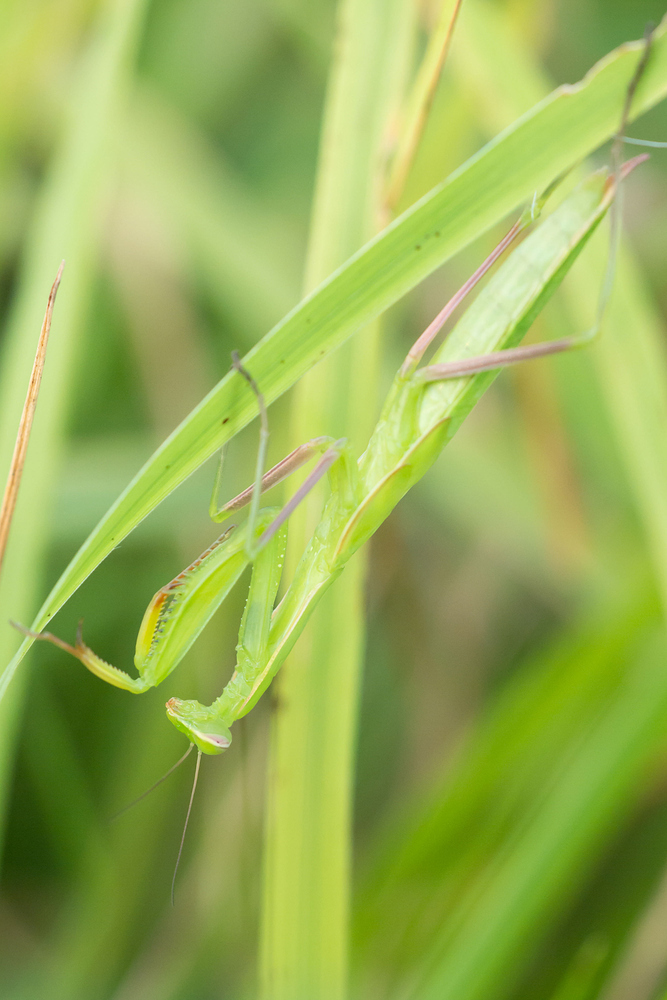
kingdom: Animalia
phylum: Arthropoda
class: Insecta
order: Mantodea
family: Mantidae
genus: Mantis
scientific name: Mantis religiosa
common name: Praying mantis
